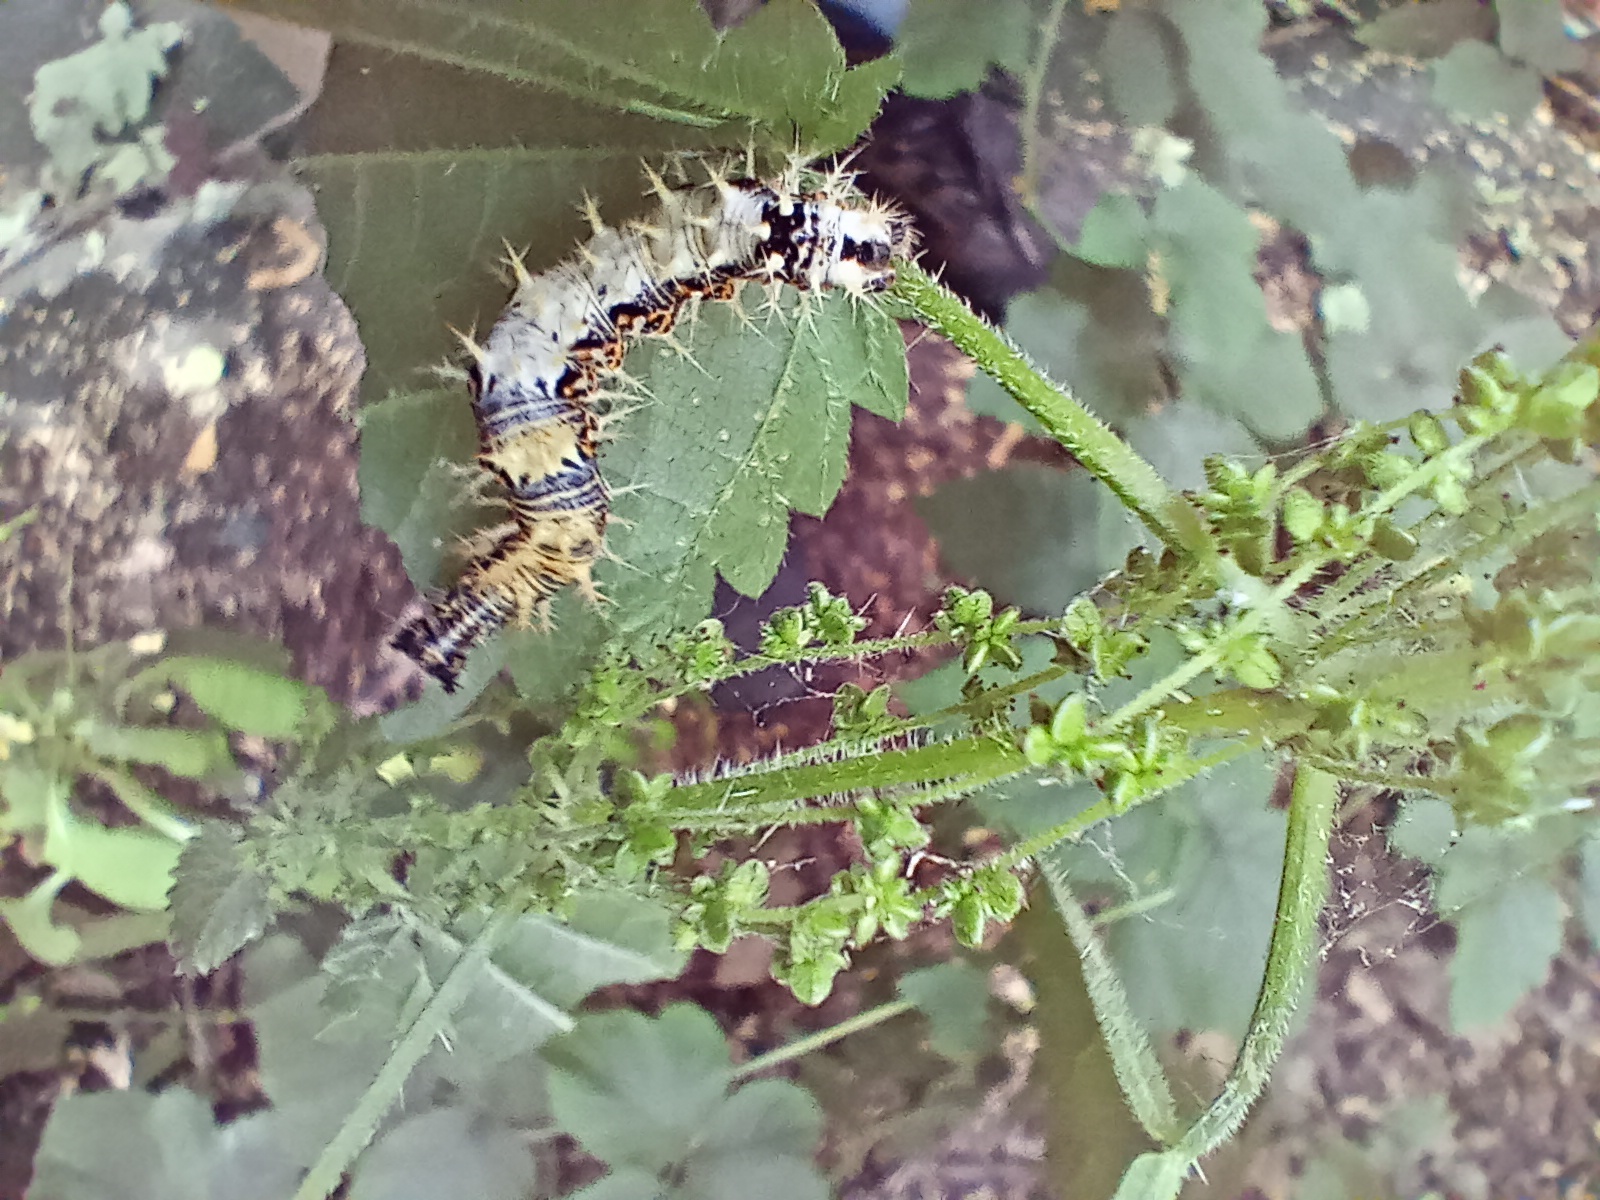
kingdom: Animalia
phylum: Arthropoda
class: Insecta
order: Lepidoptera
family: Nymphalidae
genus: Polygonia
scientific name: Polygonia c-album
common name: Comma
